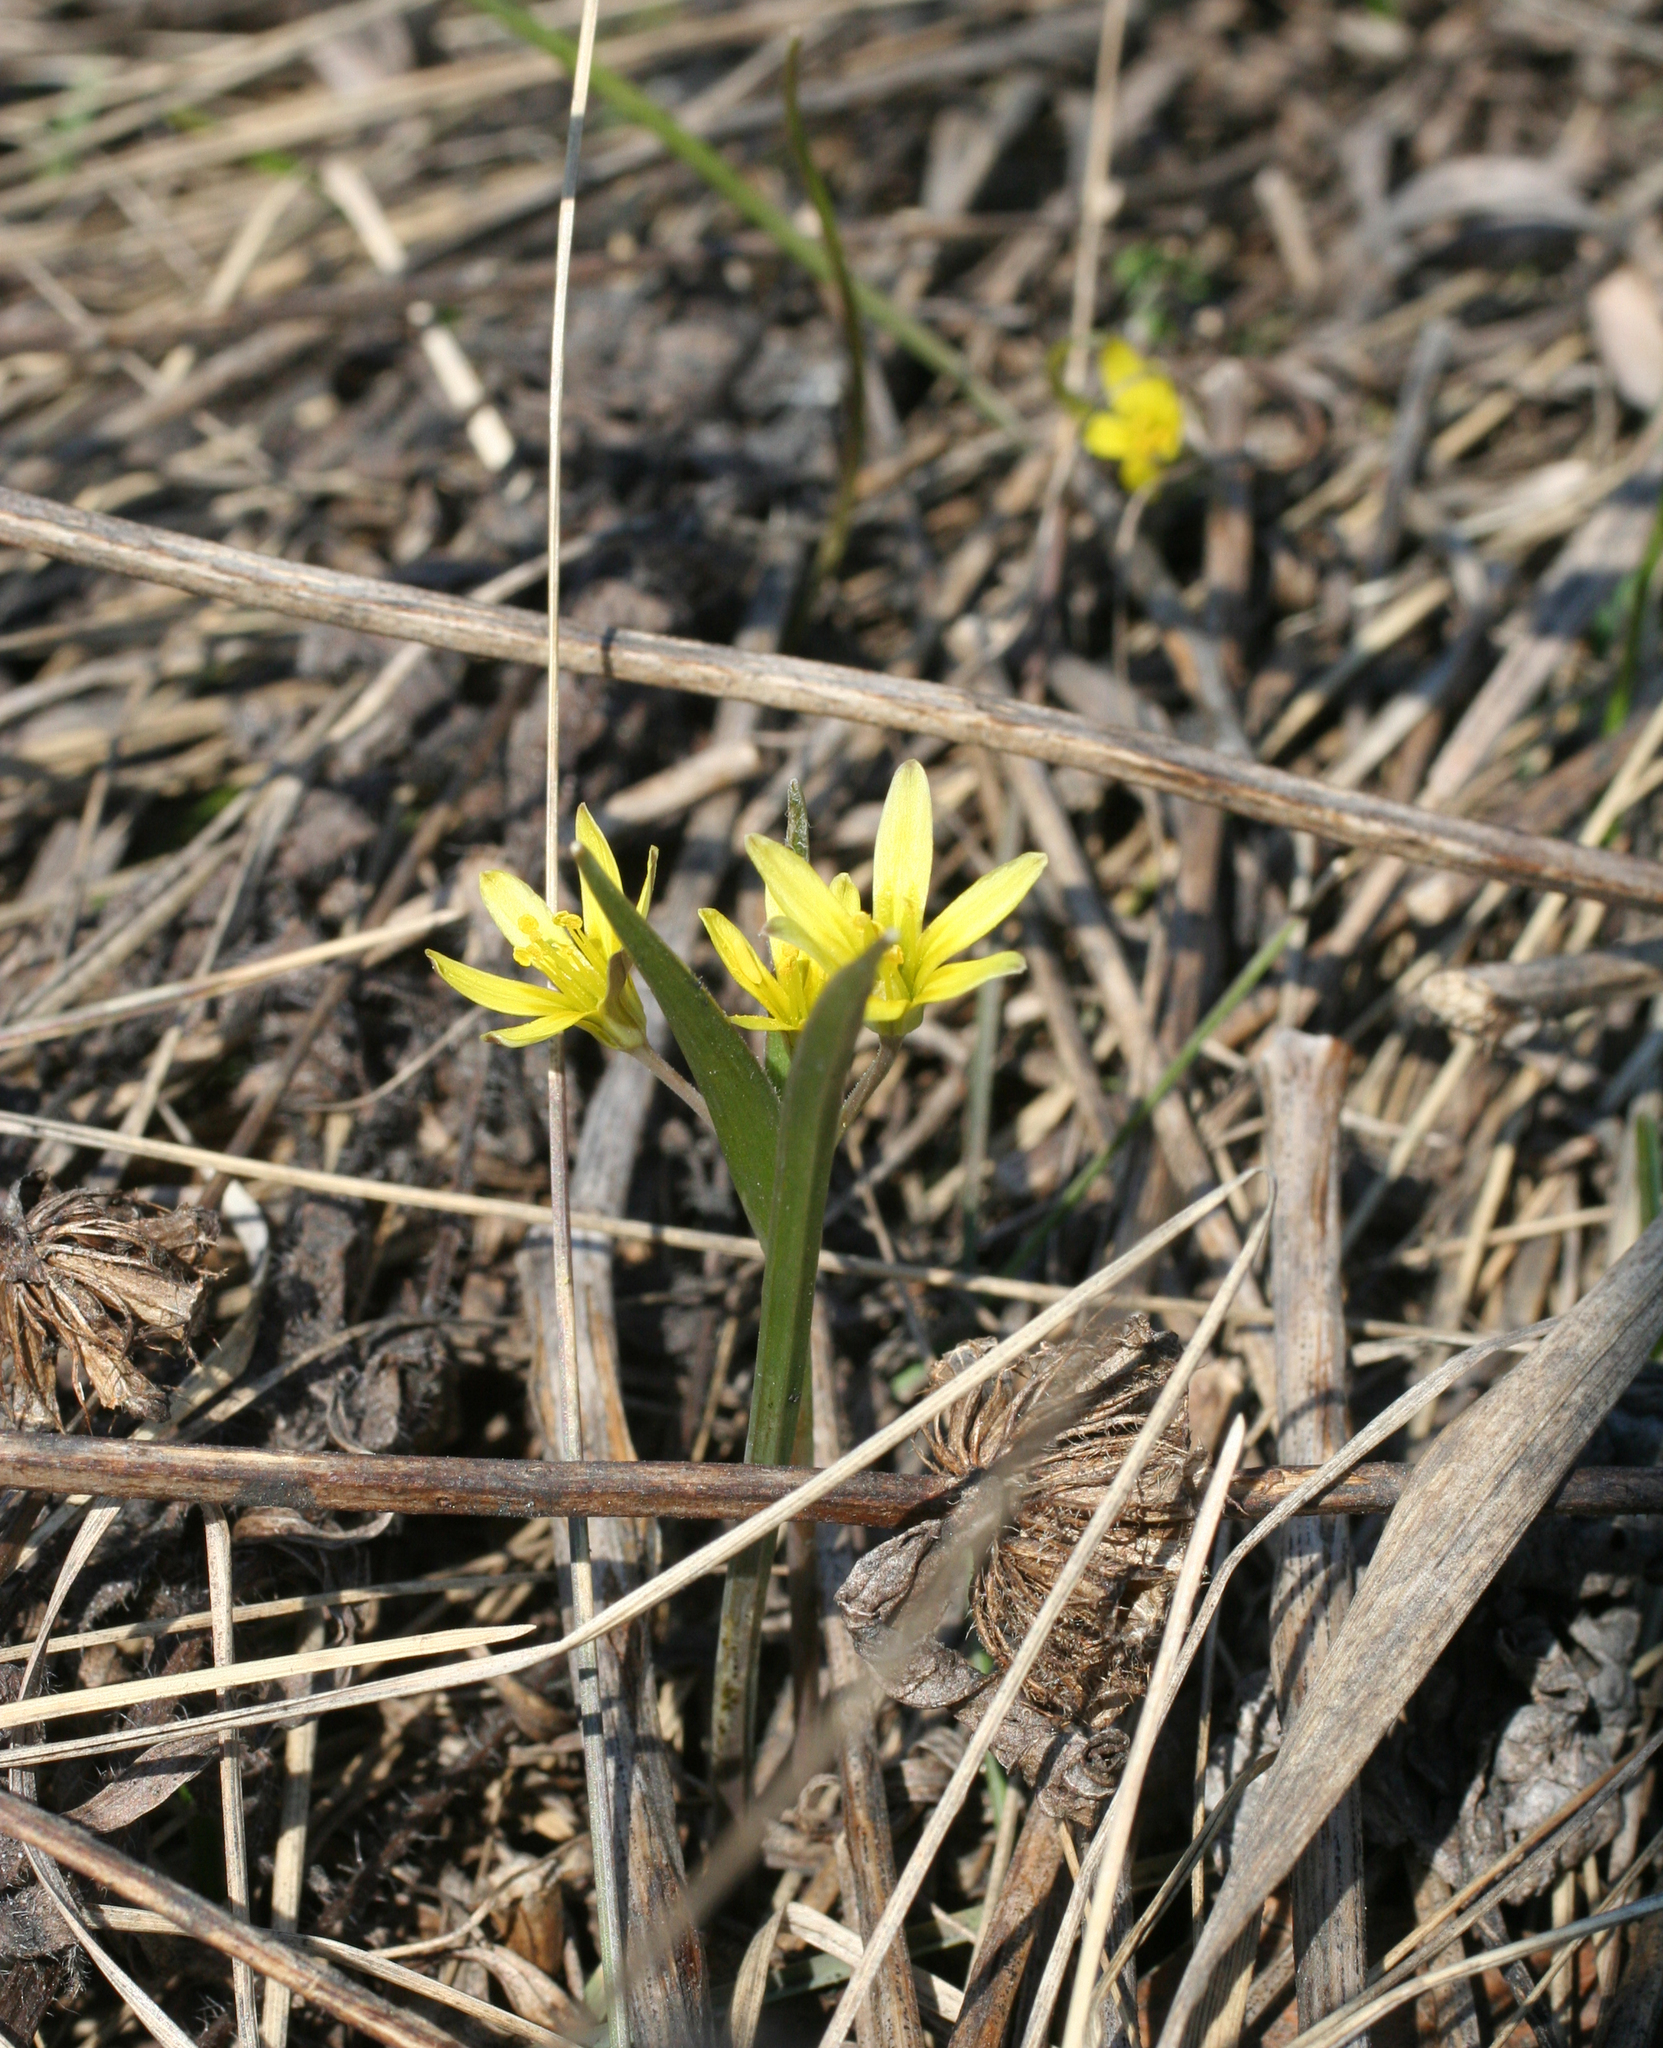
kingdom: Plantae
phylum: Tracheophyta
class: Liliopsida
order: Liliales
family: Liliaceae
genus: Gagea
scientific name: Gagea fedtschenkoana
